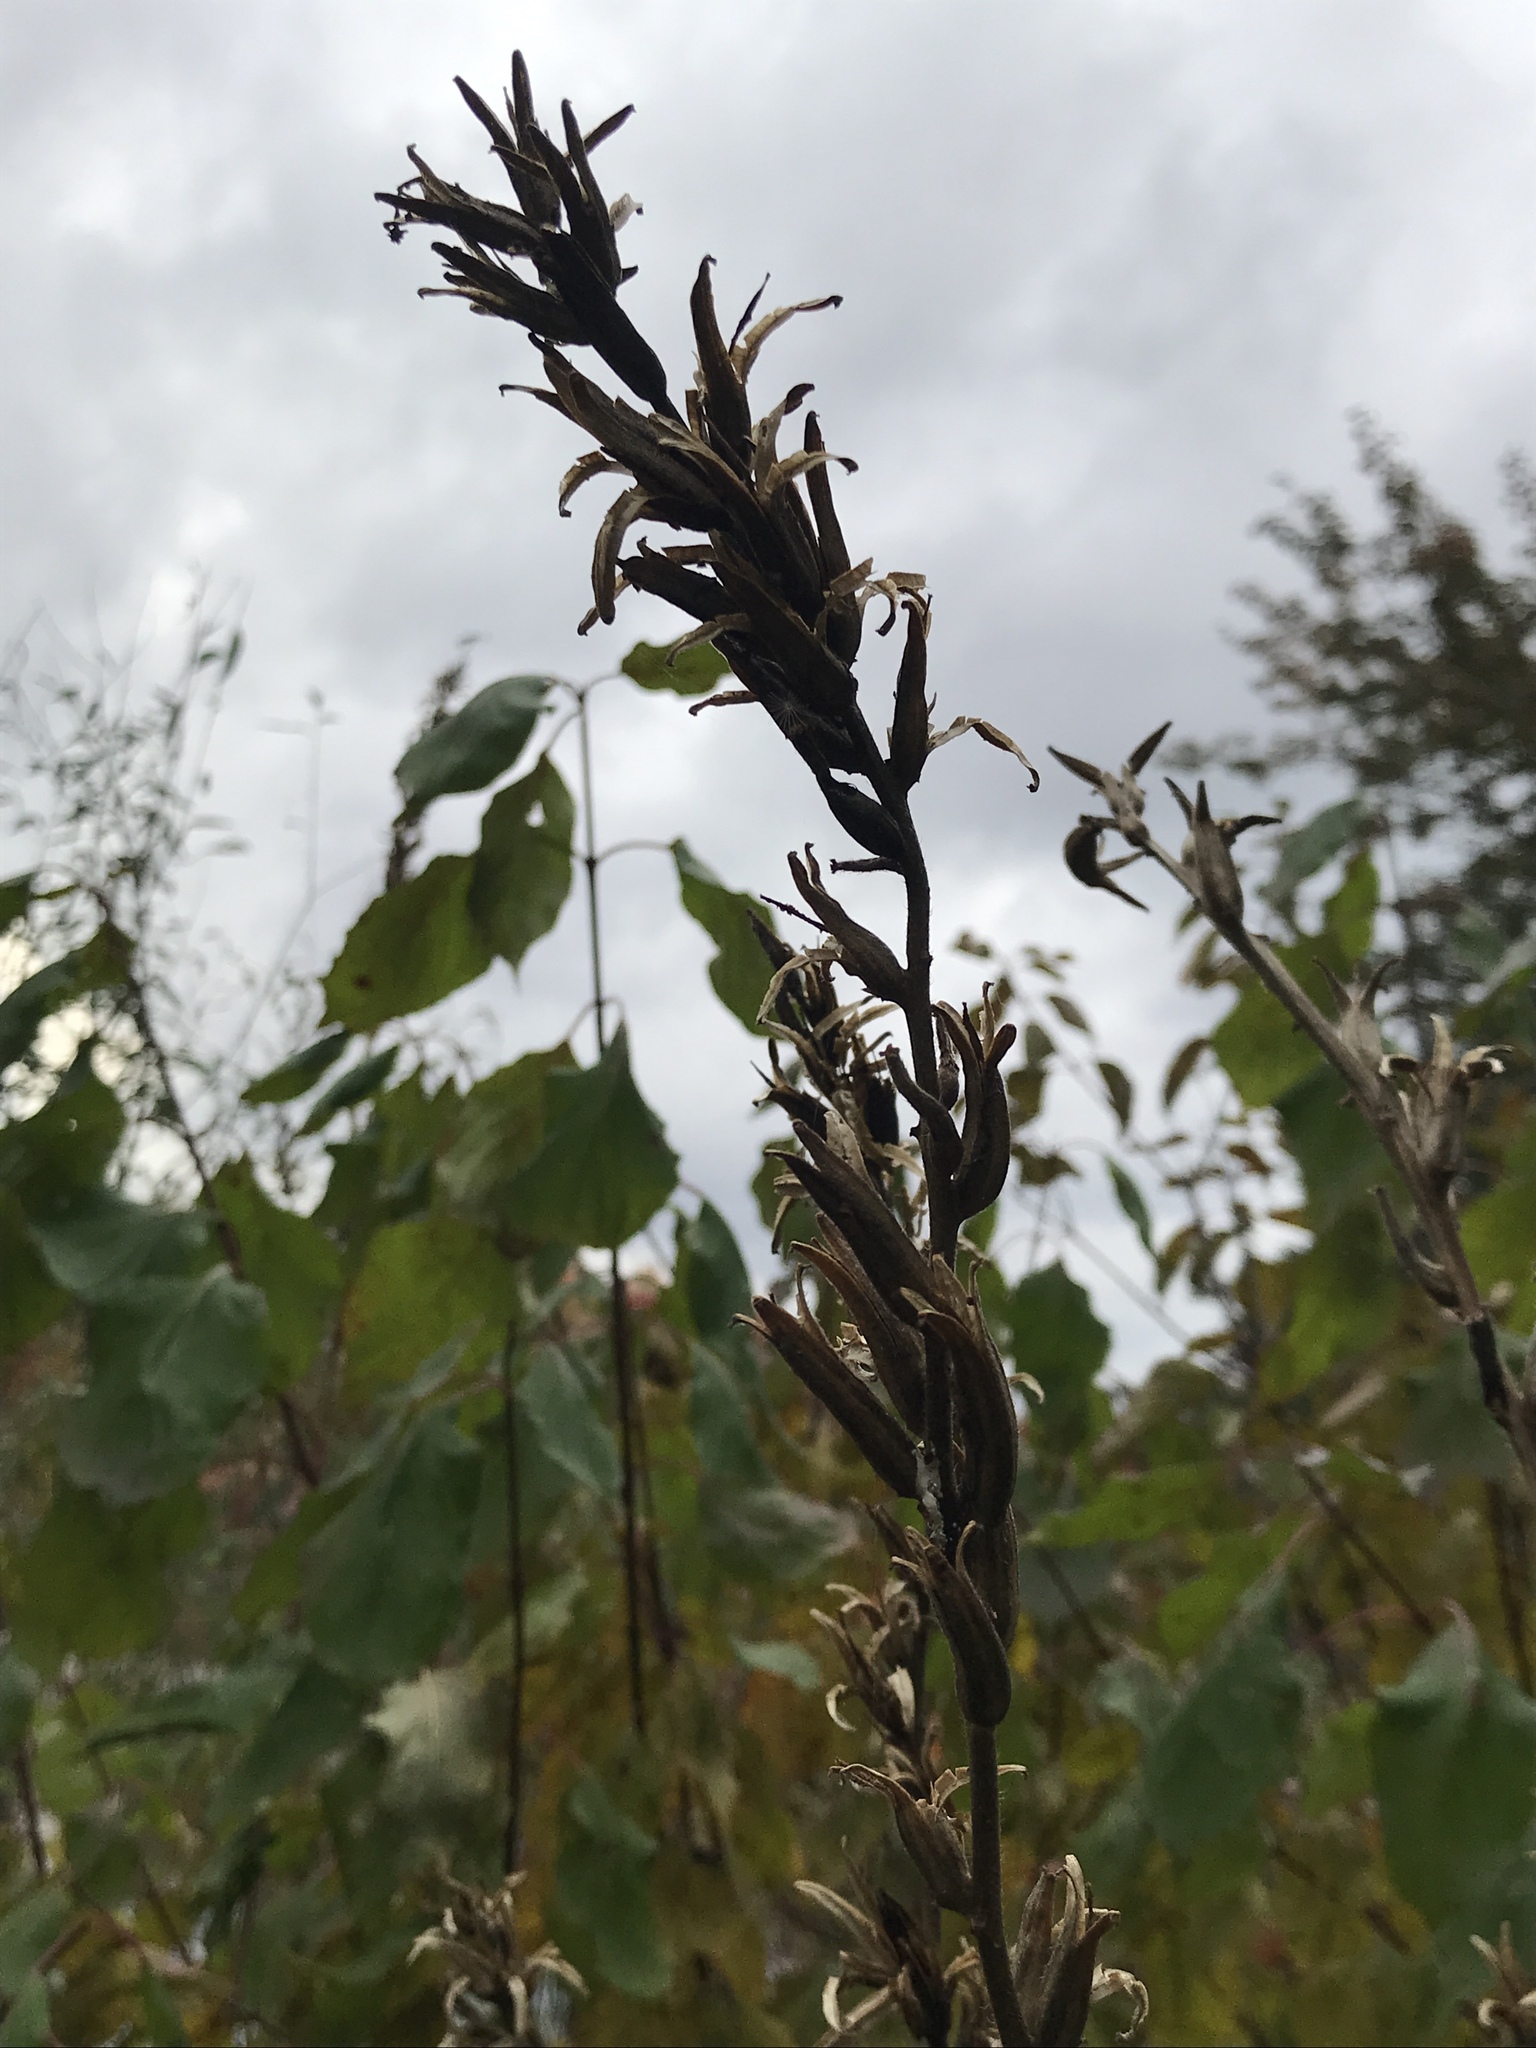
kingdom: Plantae
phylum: Tracheophyta
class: Magnoliopsida
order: Myrtales
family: Onagraceae
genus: Oenothera
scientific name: Oenothera biennis
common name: Common evening-primrose
